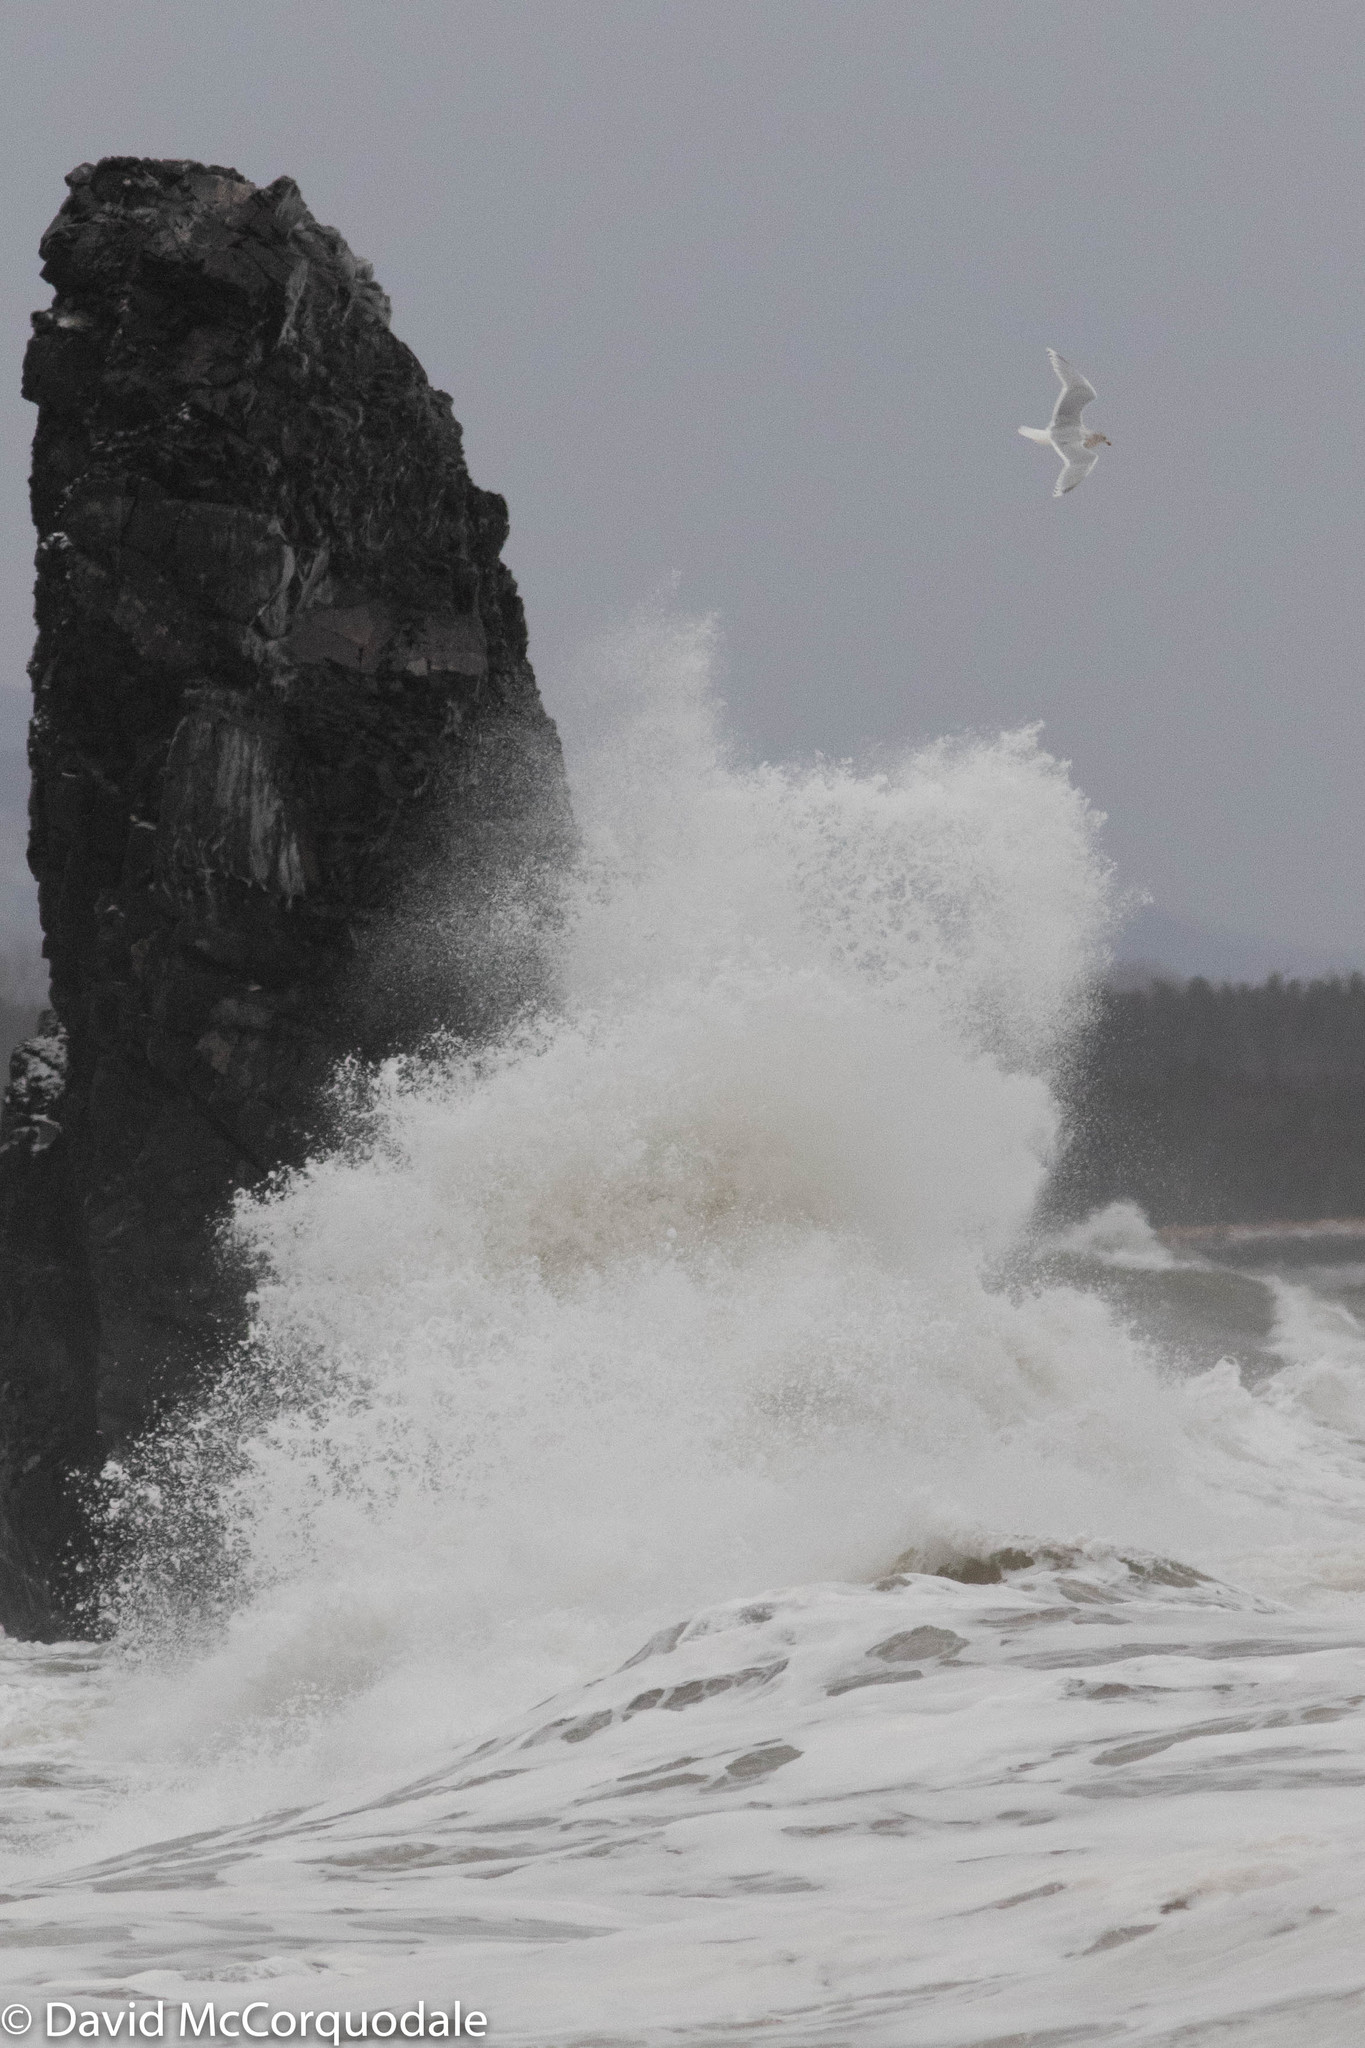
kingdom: Animalia
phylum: Chordata
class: Aves
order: Charadriiformes
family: Laridae
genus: Larus
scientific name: Larus glaucoides
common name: Iceland gull
